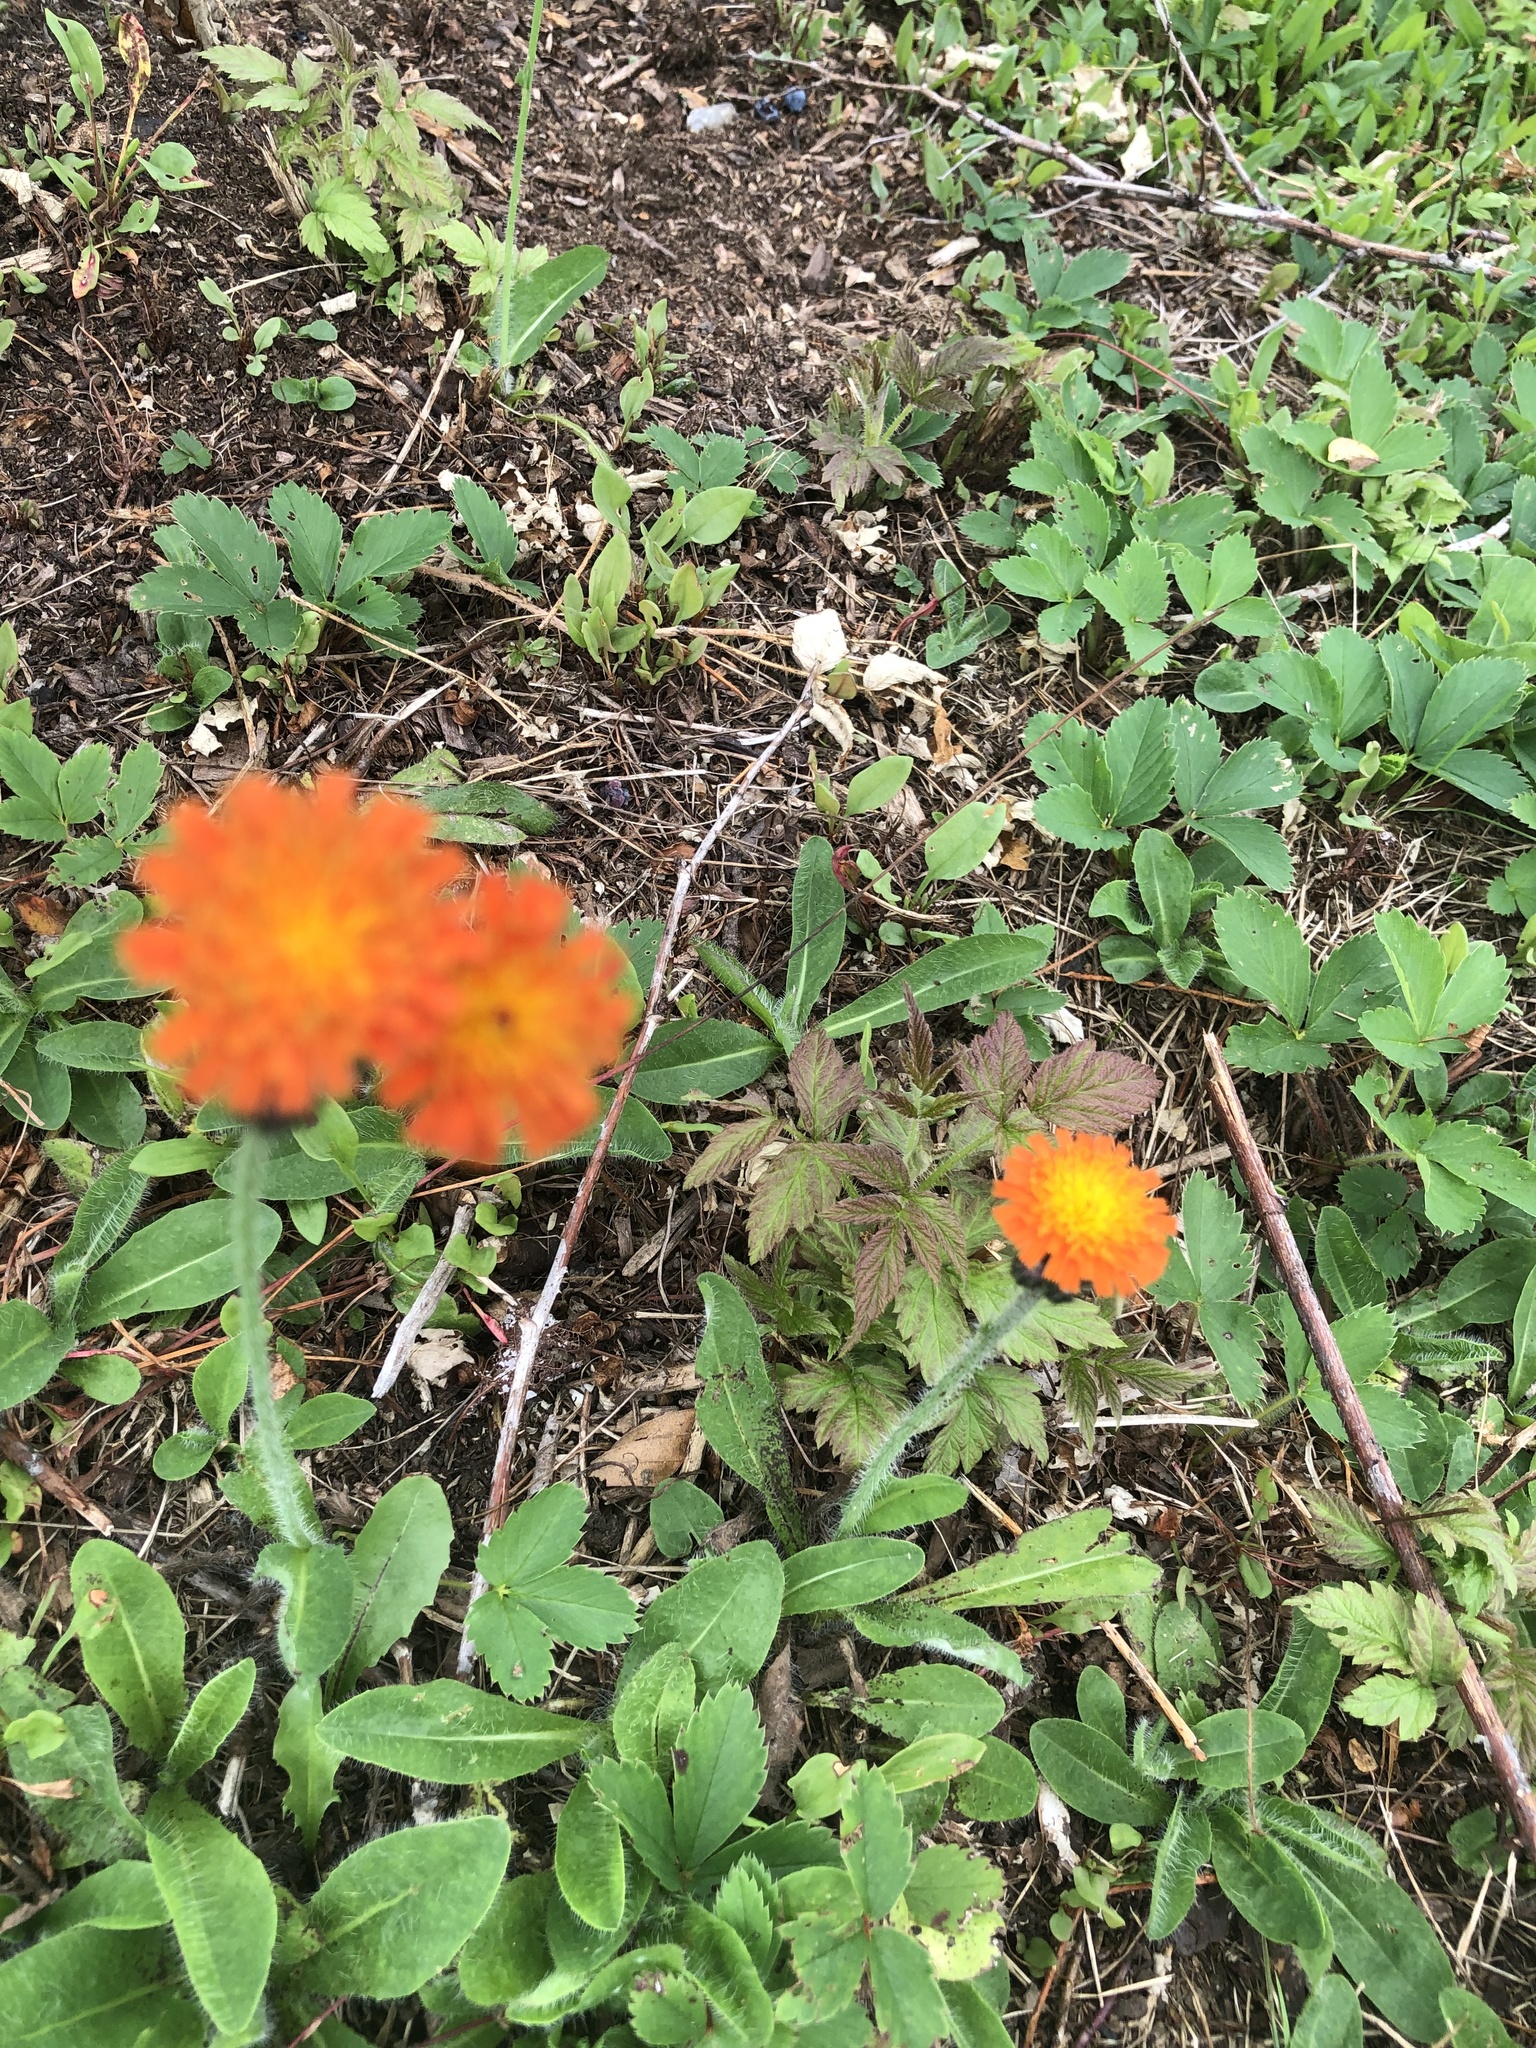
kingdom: Plantae
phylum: Tracheophyta
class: Magnoliopsida
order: Asterales
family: Asteraceae
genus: Pilosella
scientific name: Pilosella aurantiaca
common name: Fox-and-cubs
